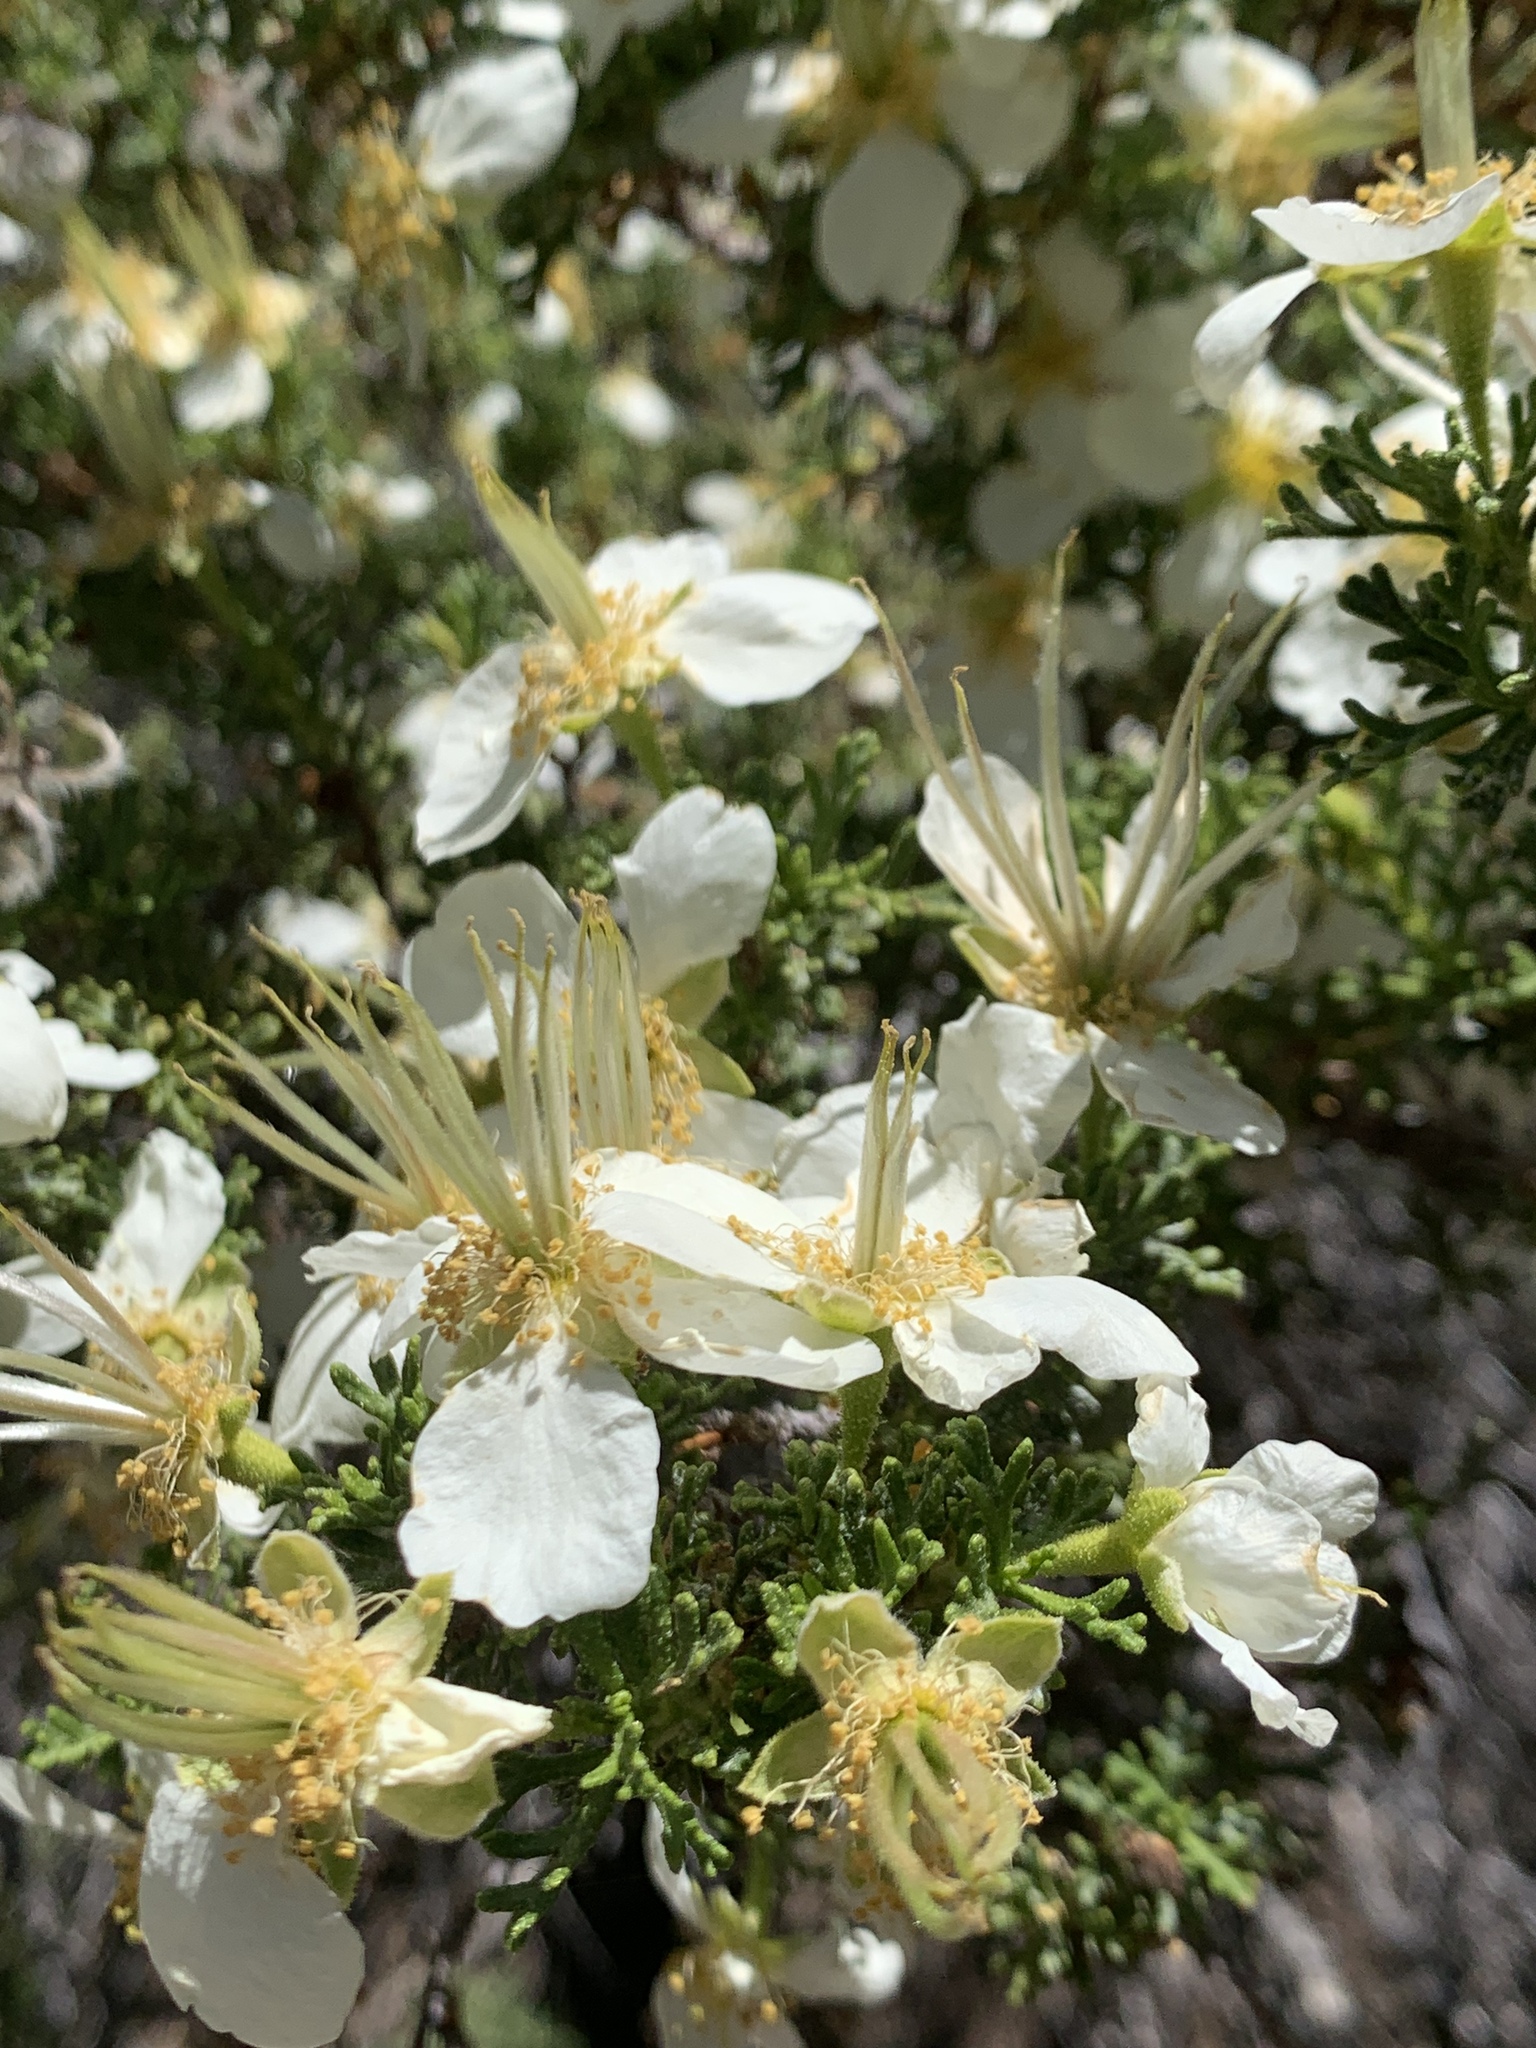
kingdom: Plantae
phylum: Tracheophyta
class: Magnoliopsida
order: Rosales
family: Rosaceae
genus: Purshia
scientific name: Purshia stansburiana
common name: Stansbury's cliffrose
